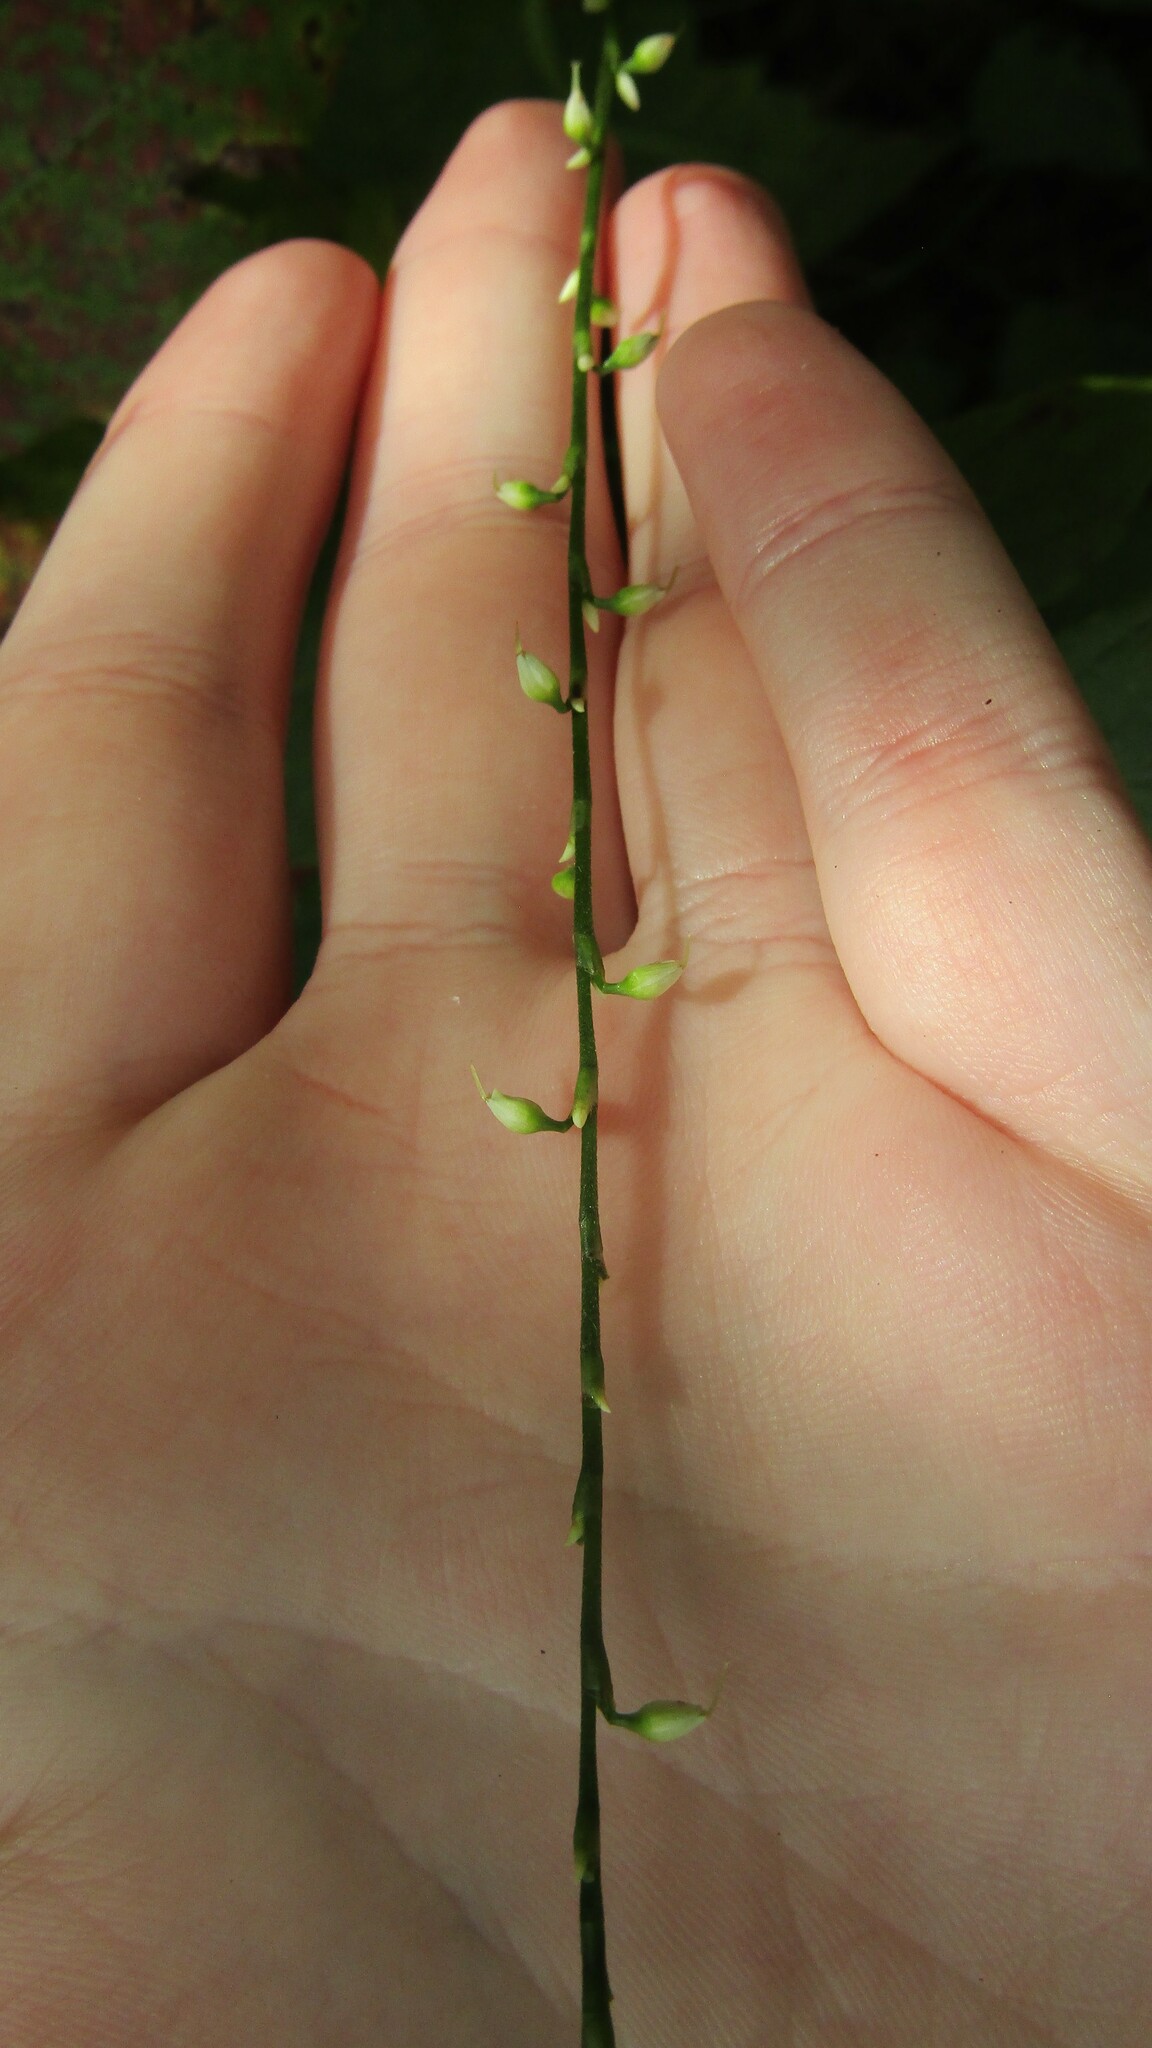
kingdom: Plantae
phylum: Tracheophyta
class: Magnoliopsida
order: Caryophyllales
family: Polygonaceae
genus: Persicaria
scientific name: Persicaria virginiana
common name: Jumpseed
